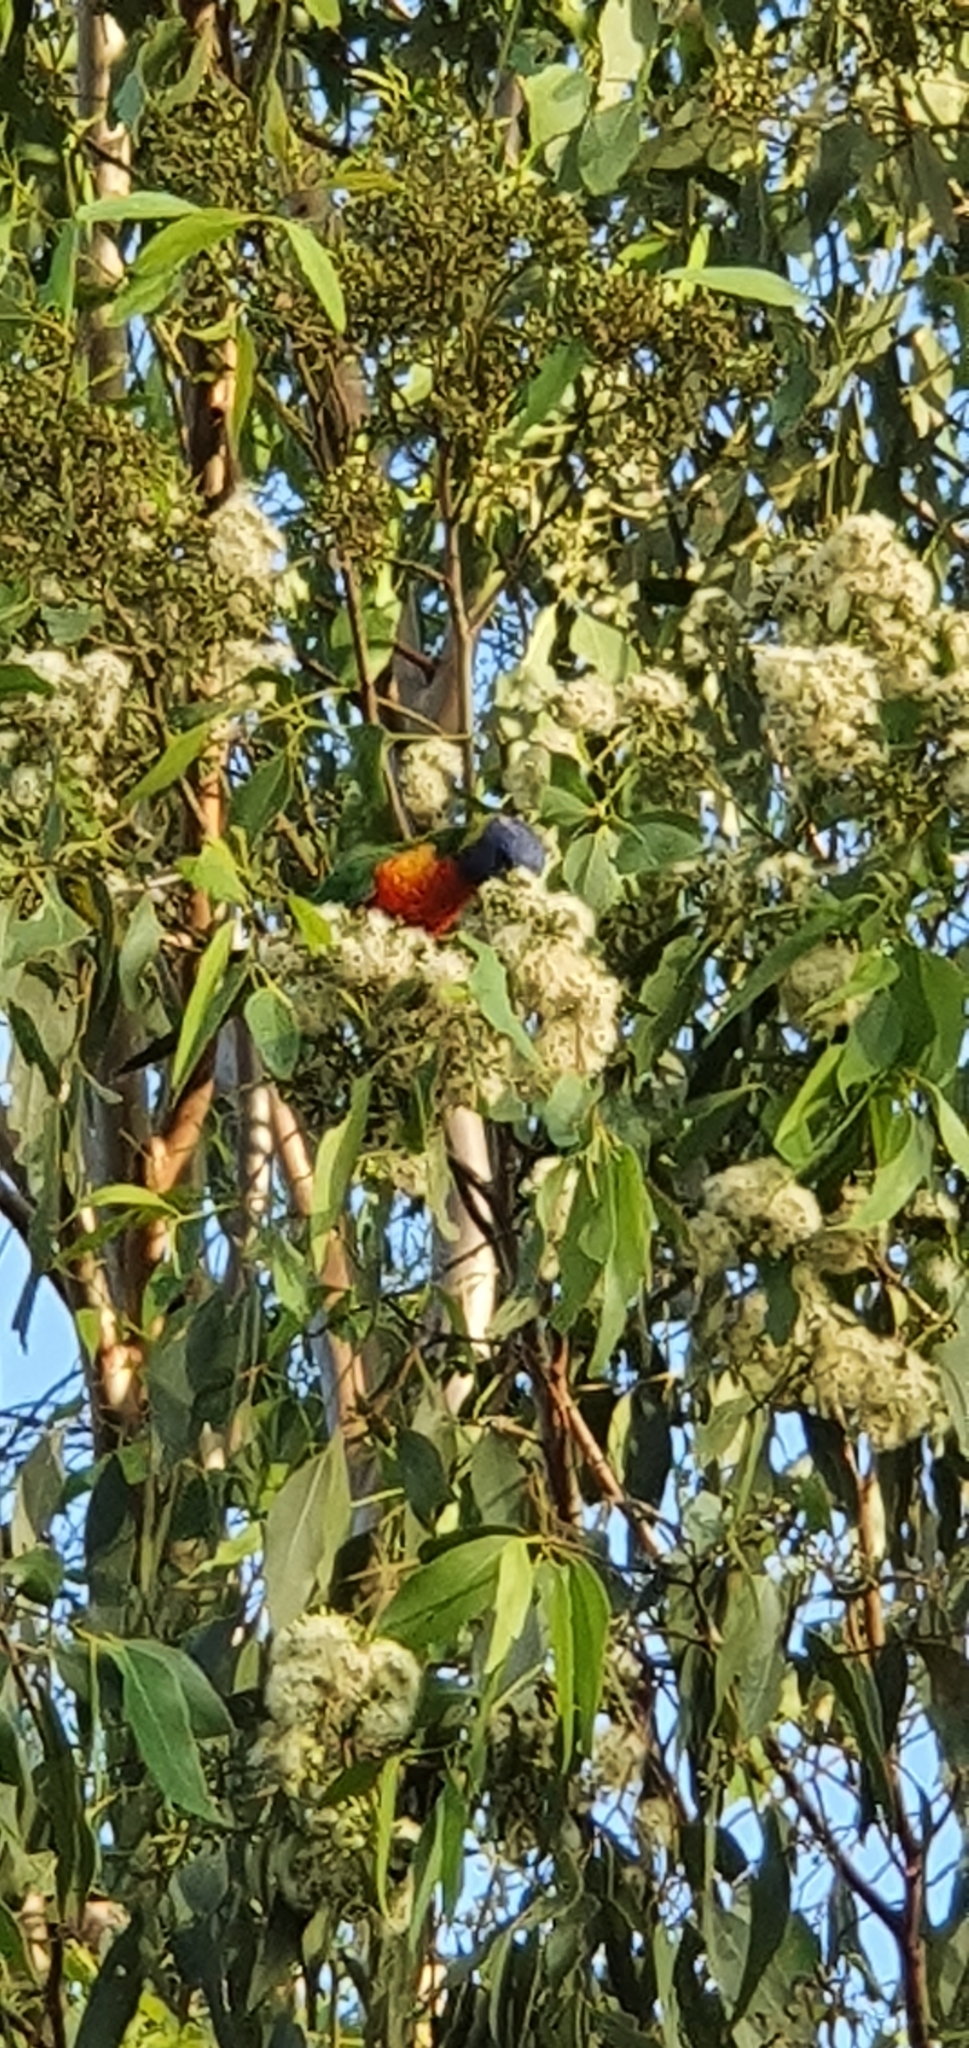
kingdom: Animalia
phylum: Chordata
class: Aves
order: Psittaciformes
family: Psittacidae
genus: Trichoglossus
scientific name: Trichoglossus haematodus
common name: Coconut lorikeet
